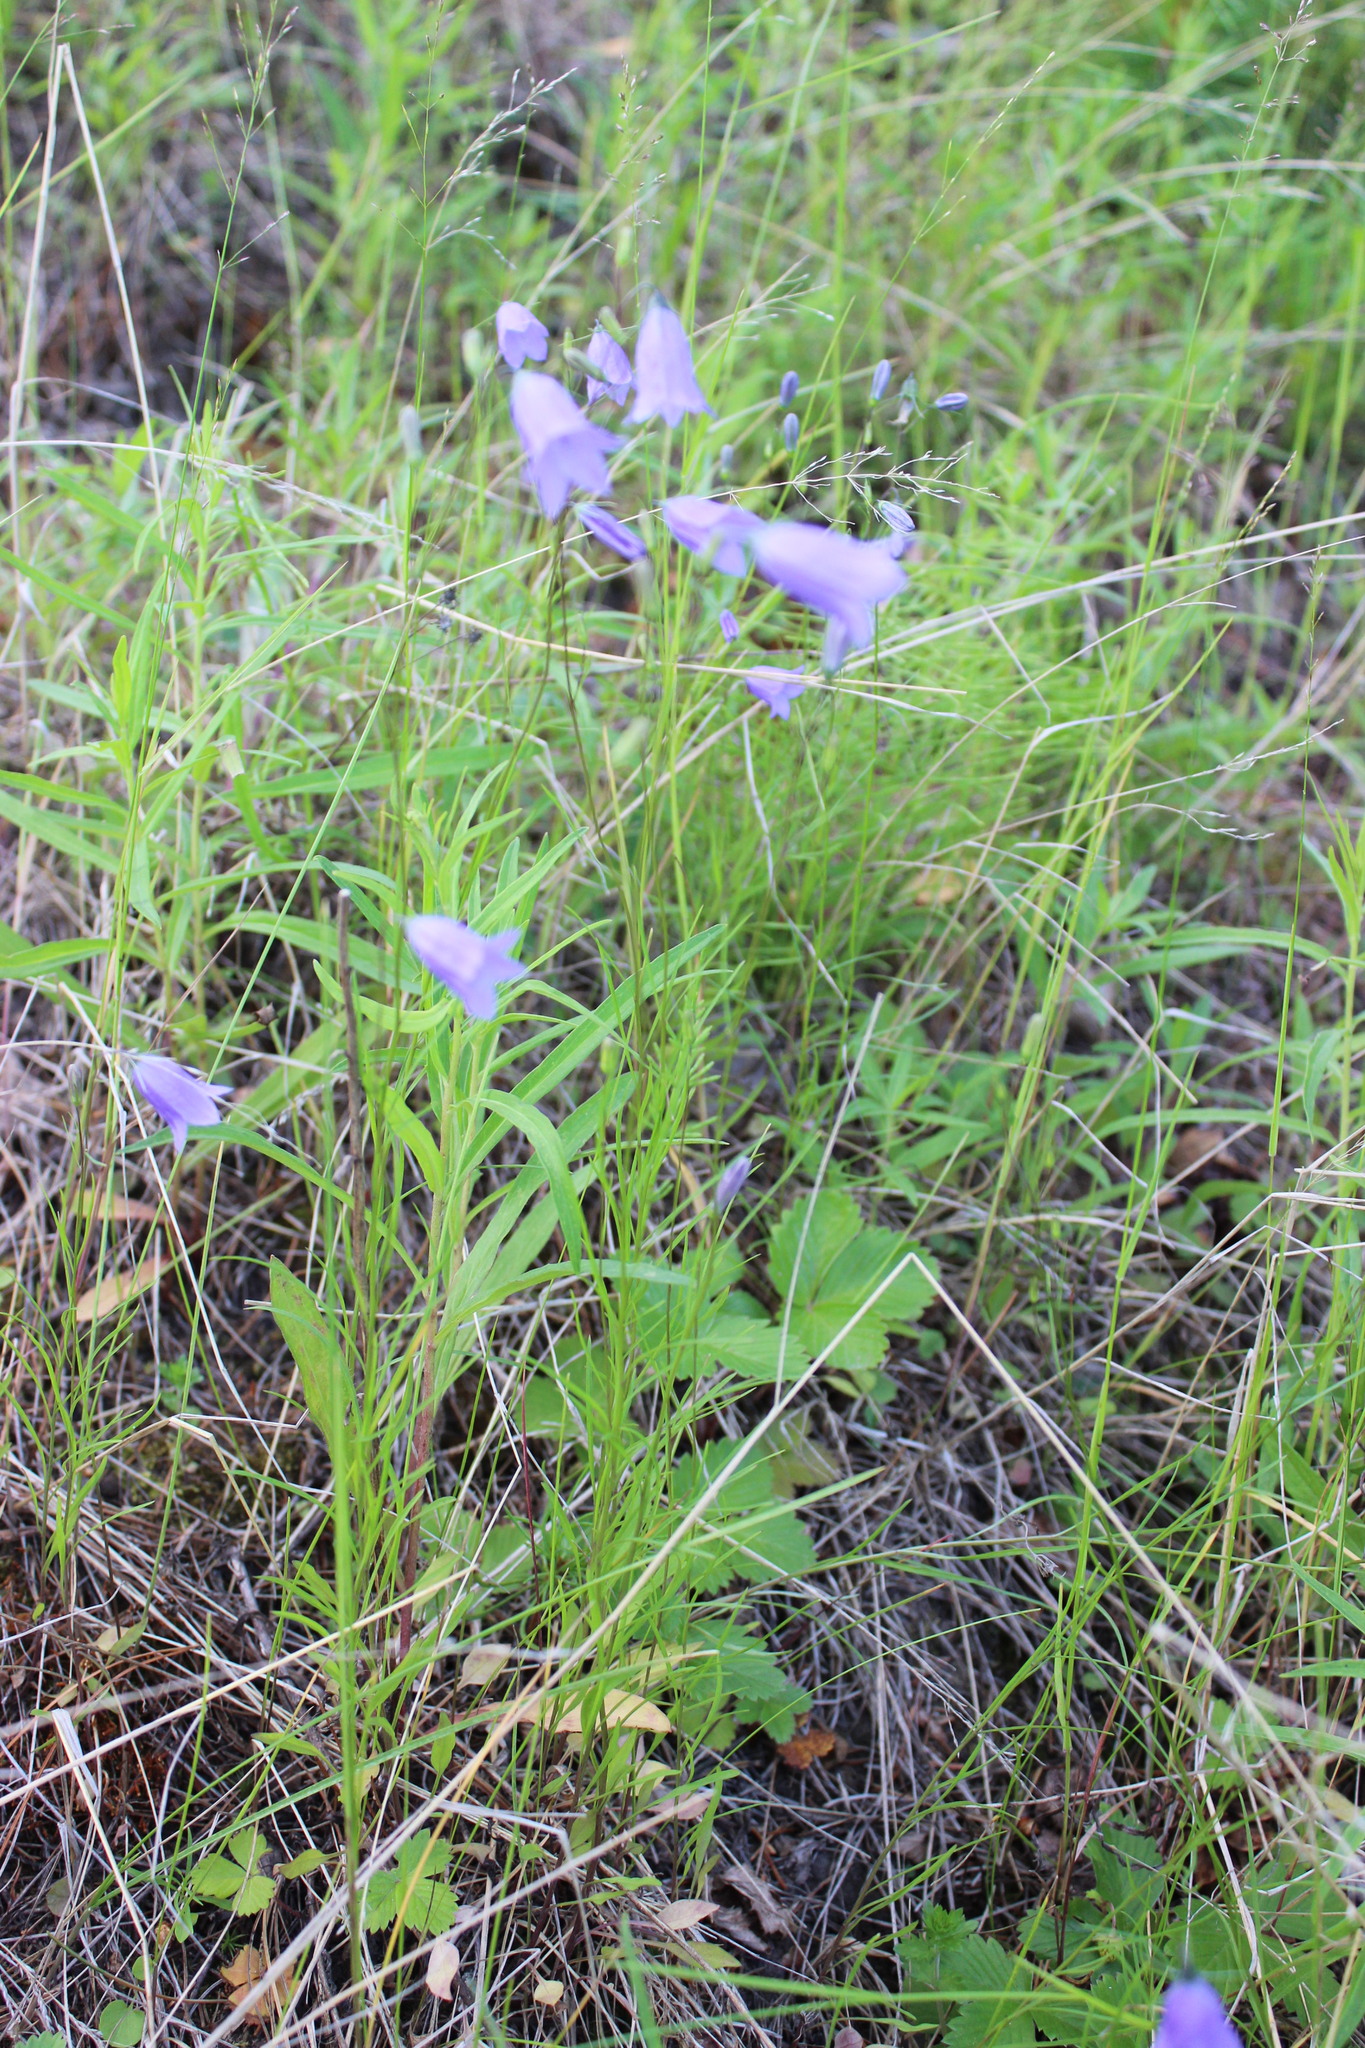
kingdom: Plantae
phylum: Tracheophyta
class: Magnoliopsida
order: Asterales
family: Campanulaceae
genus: Campanula
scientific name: Campanula rotundifolia
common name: Harebell
